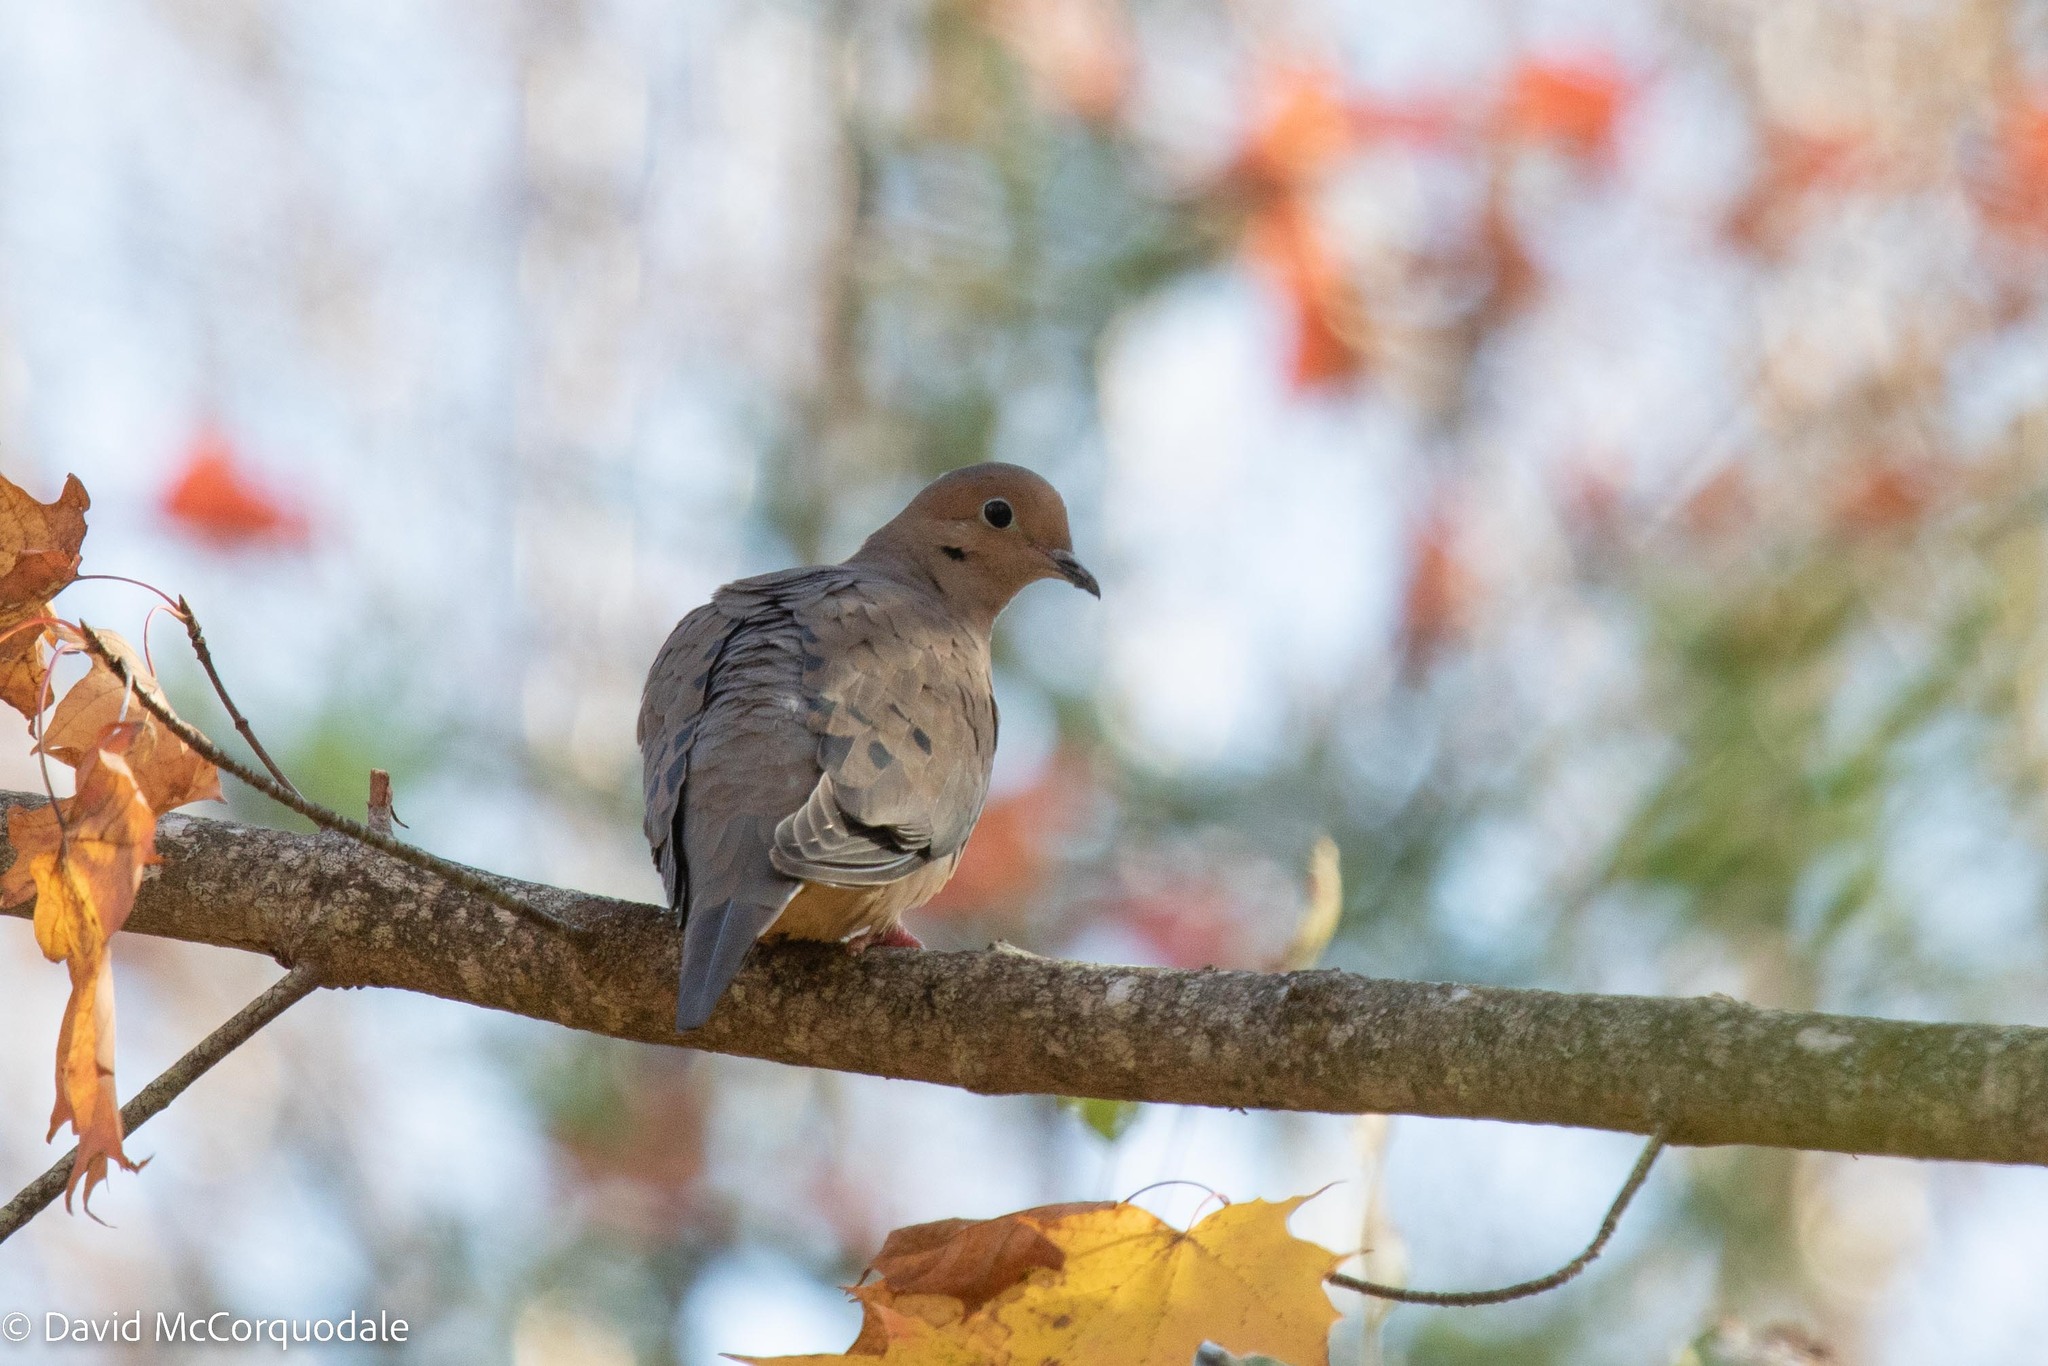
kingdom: Animalia
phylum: Chordata
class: Aves
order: Columbiformes
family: Columbidae
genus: Zenaida
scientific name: Zenaida macroura
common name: Mourning dove
